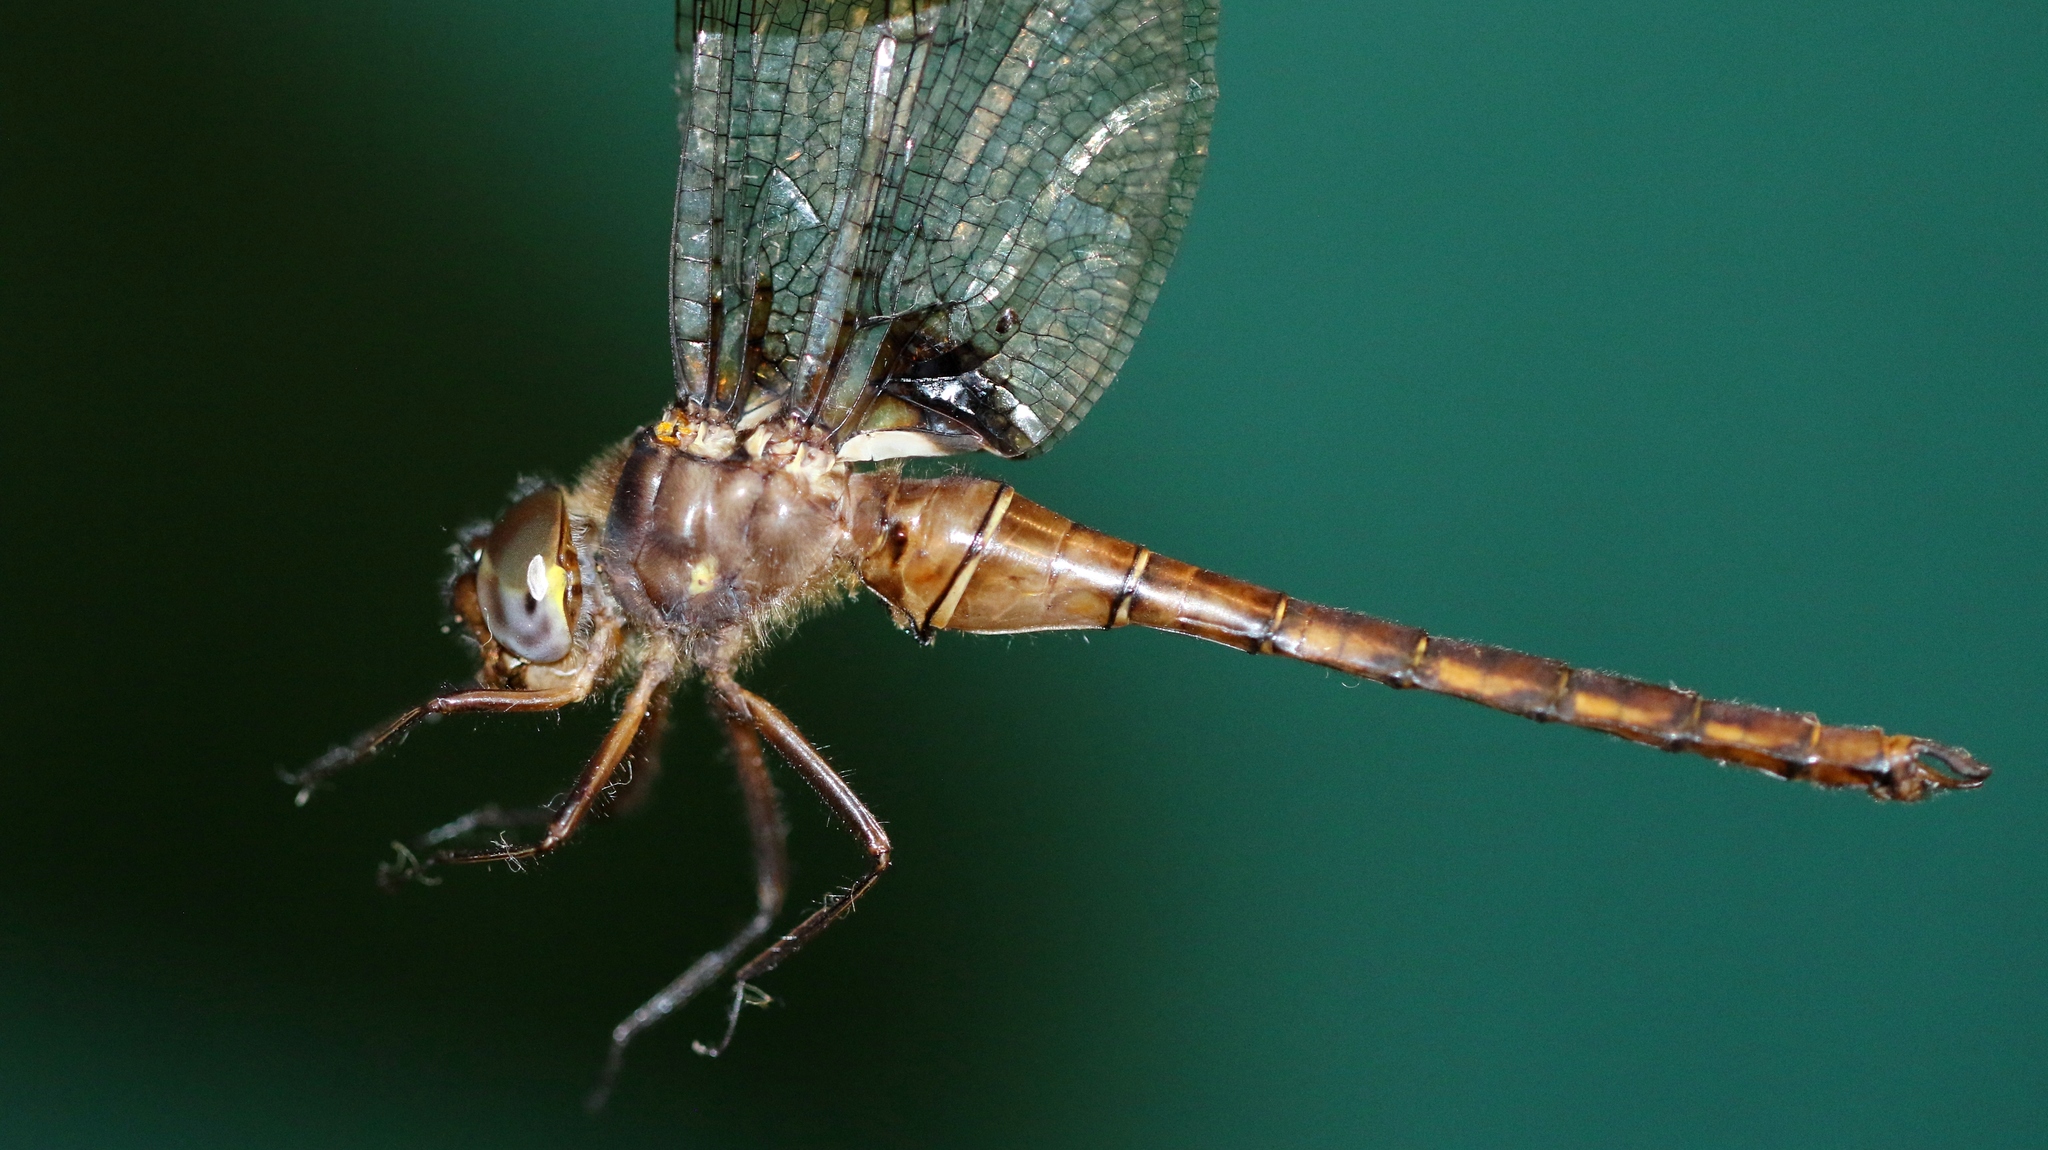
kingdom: Animalia
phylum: Arthropoda
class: Insecta
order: Odonata
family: Corduliidae
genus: Neurocordulia
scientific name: Neurocordulia yamaskanensis
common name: Stygian shadowdragon
